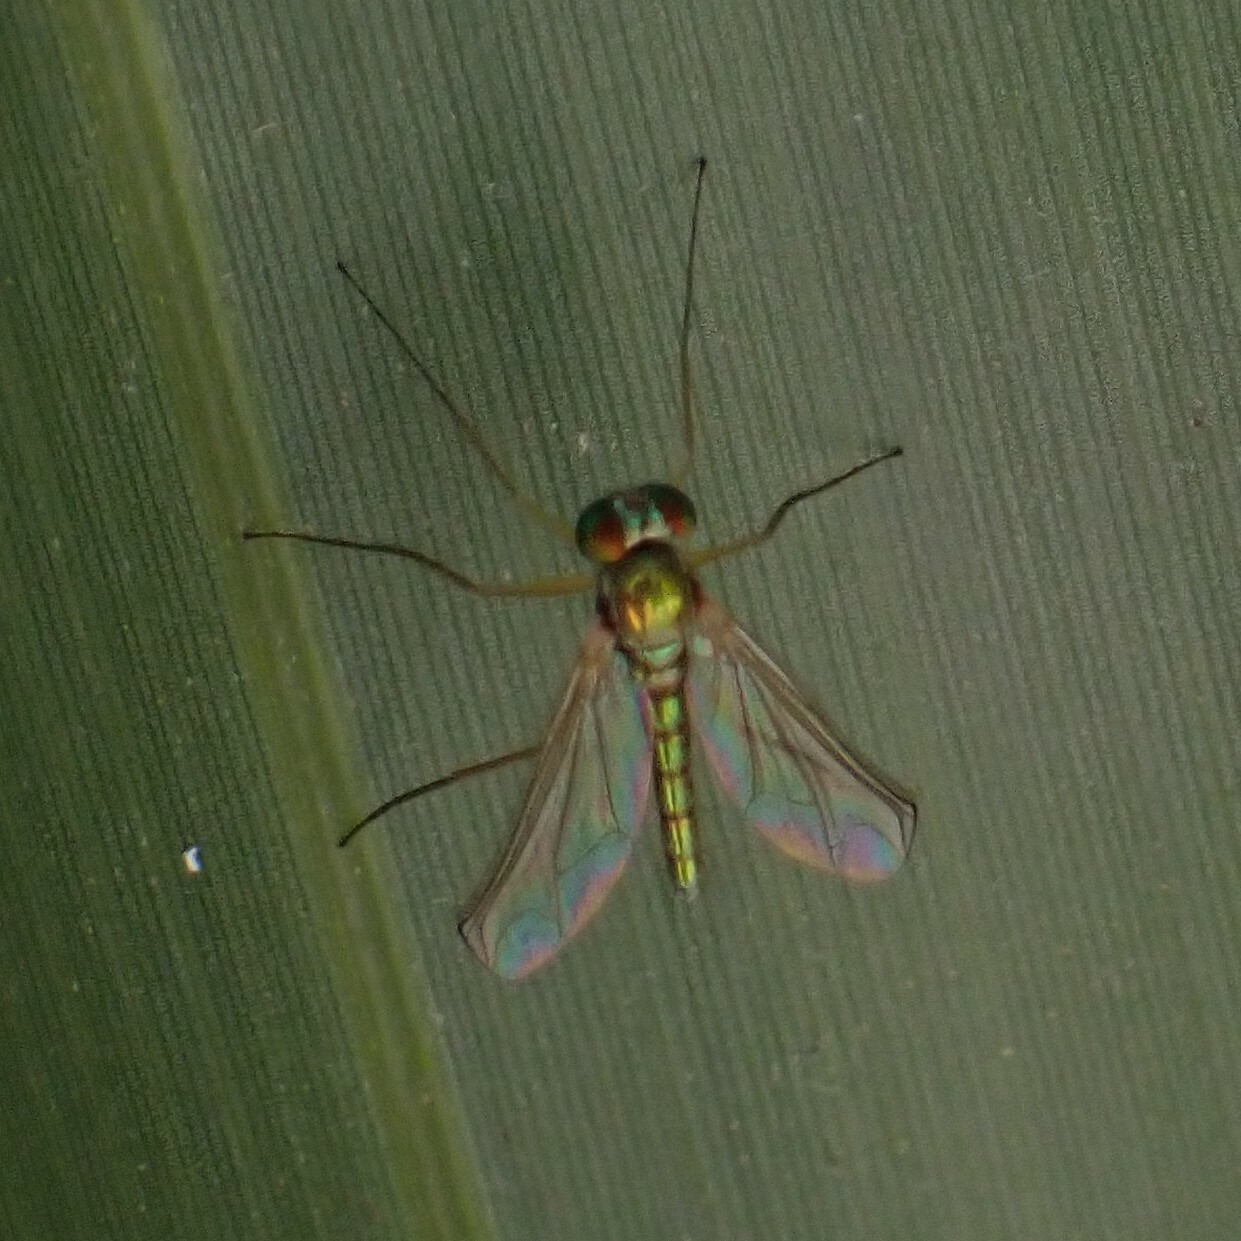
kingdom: Animalia
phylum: Arthropoda
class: Insecta
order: Diptera
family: Dolichopodidae
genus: Amblypsilopus
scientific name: Amblypsilopus psittacinus
